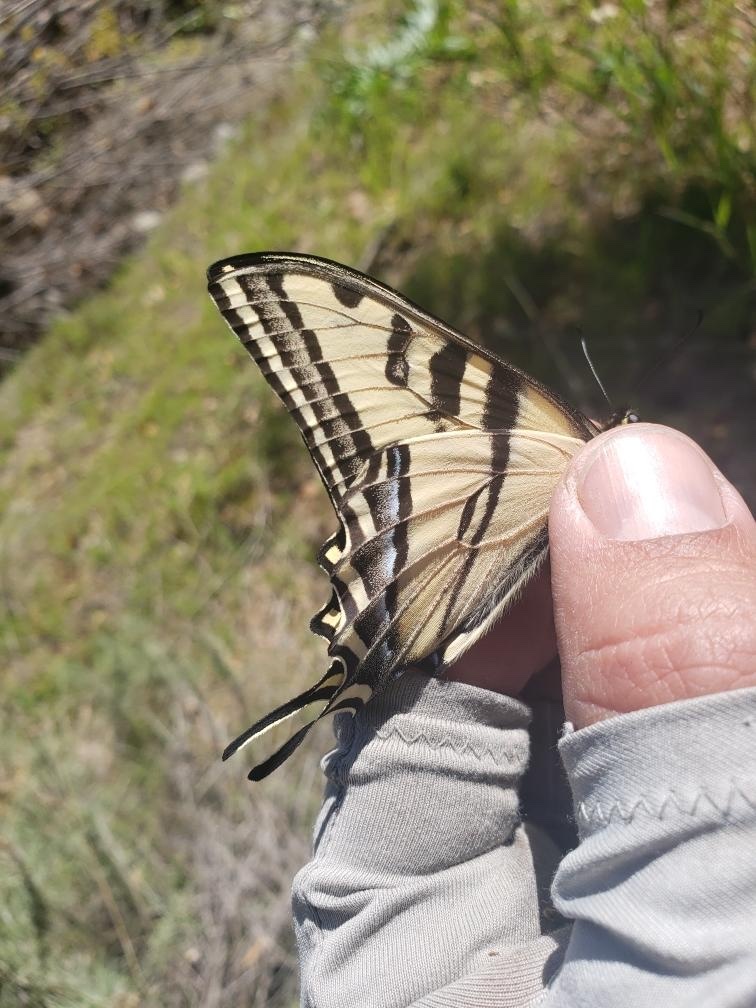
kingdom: Animalia
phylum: Arthropoda
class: Insecta
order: Lepidoptera
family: Papilionidae
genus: Papilio
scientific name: Papilio rutulus
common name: Western tiger swallowtail
